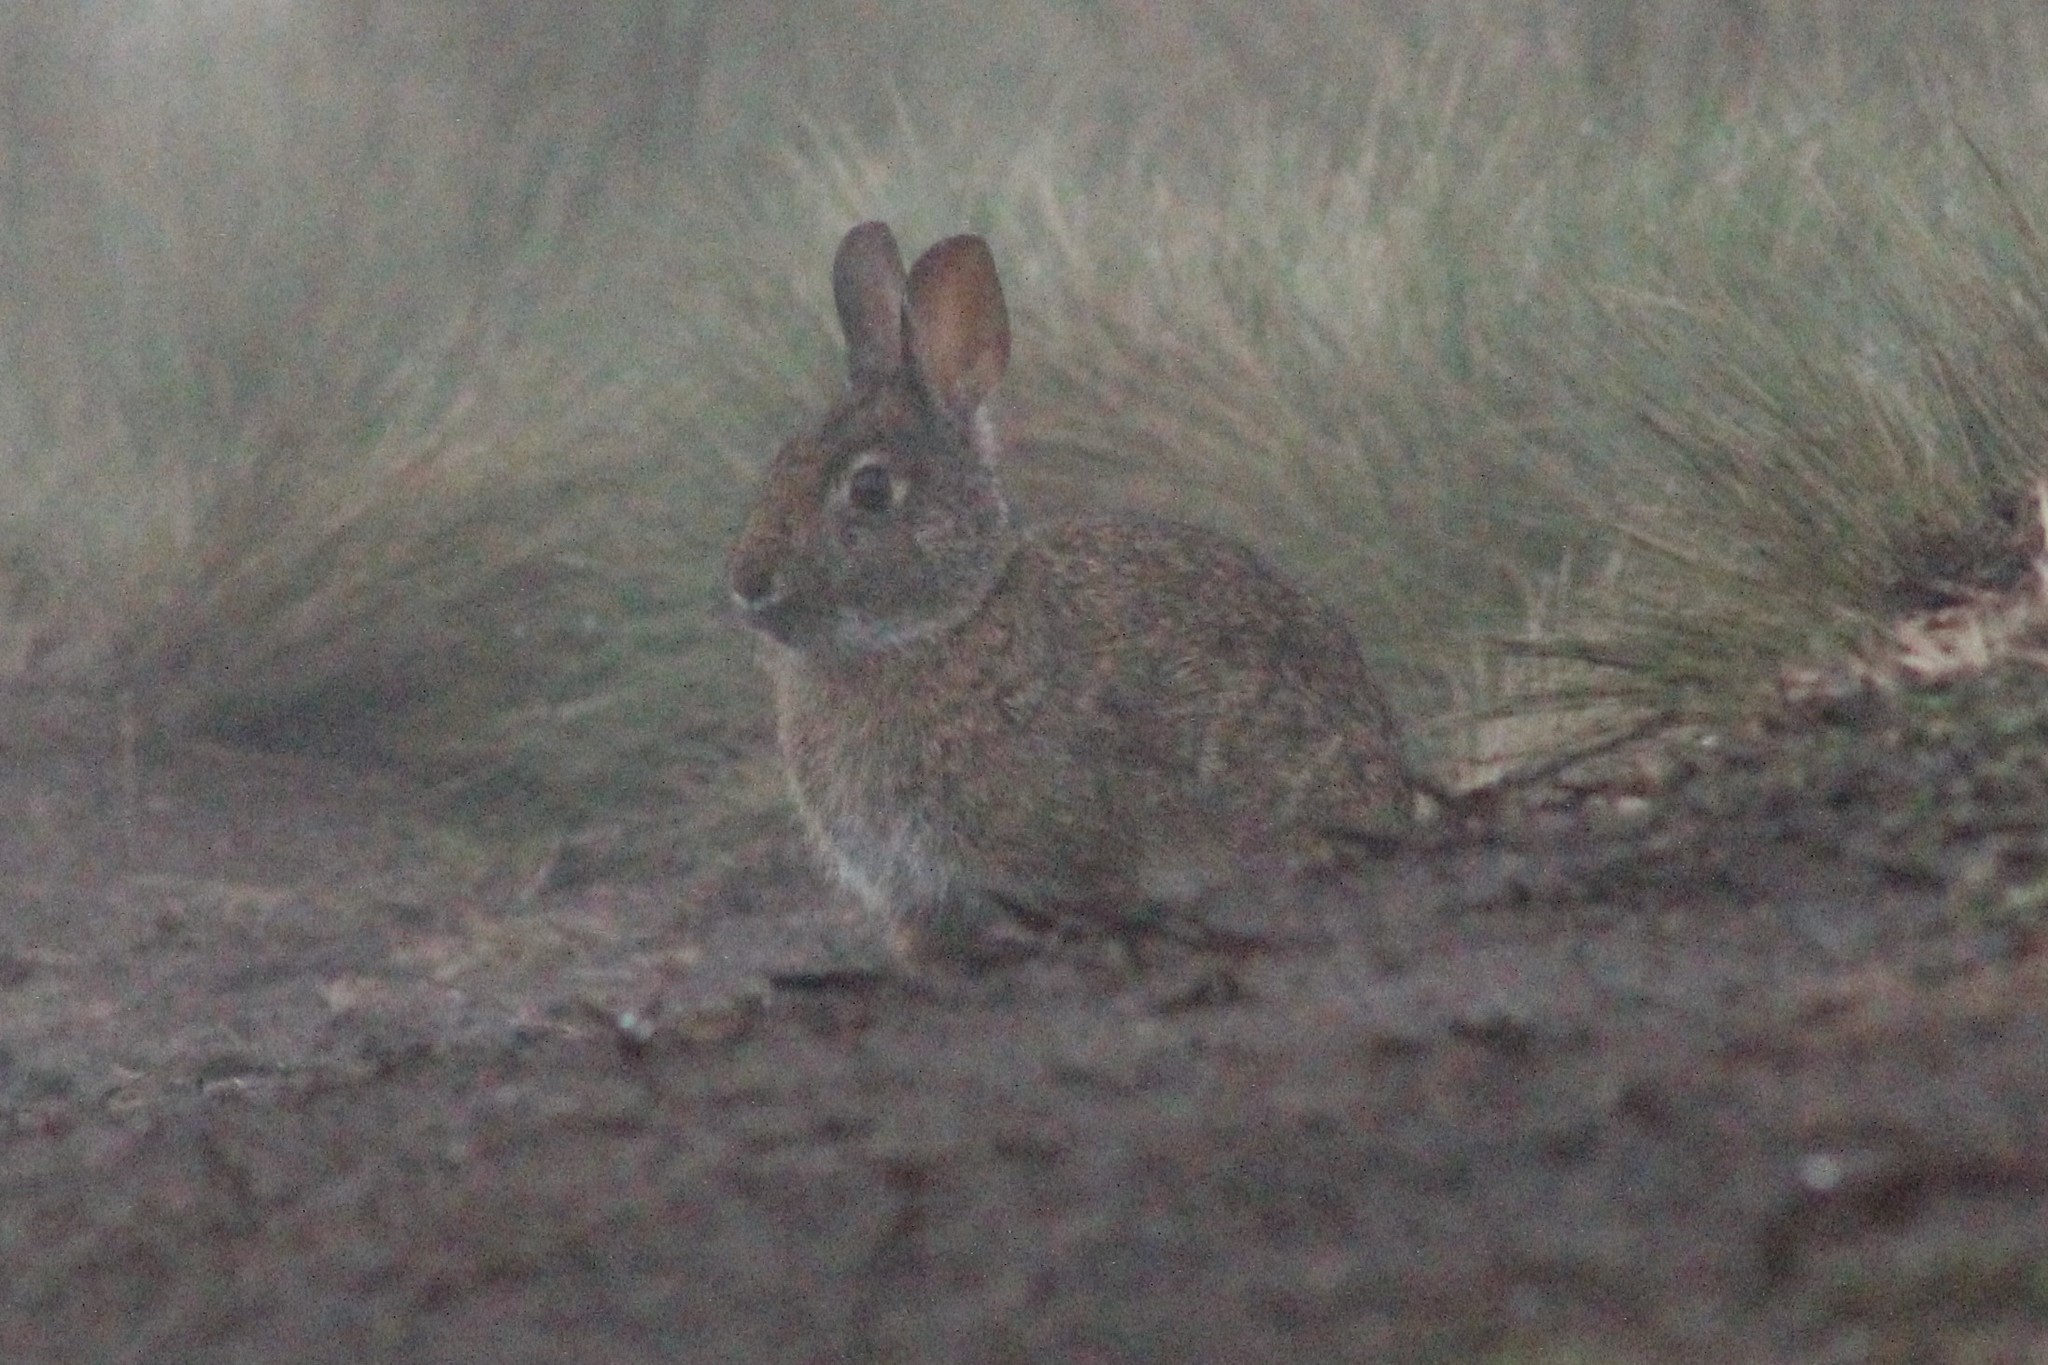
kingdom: Animalia
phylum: Chordata
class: Mammalia
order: Lagomorpha
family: Leporidae
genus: Sylvilagus
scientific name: Sylvilagus andinus
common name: Andean cottontail
